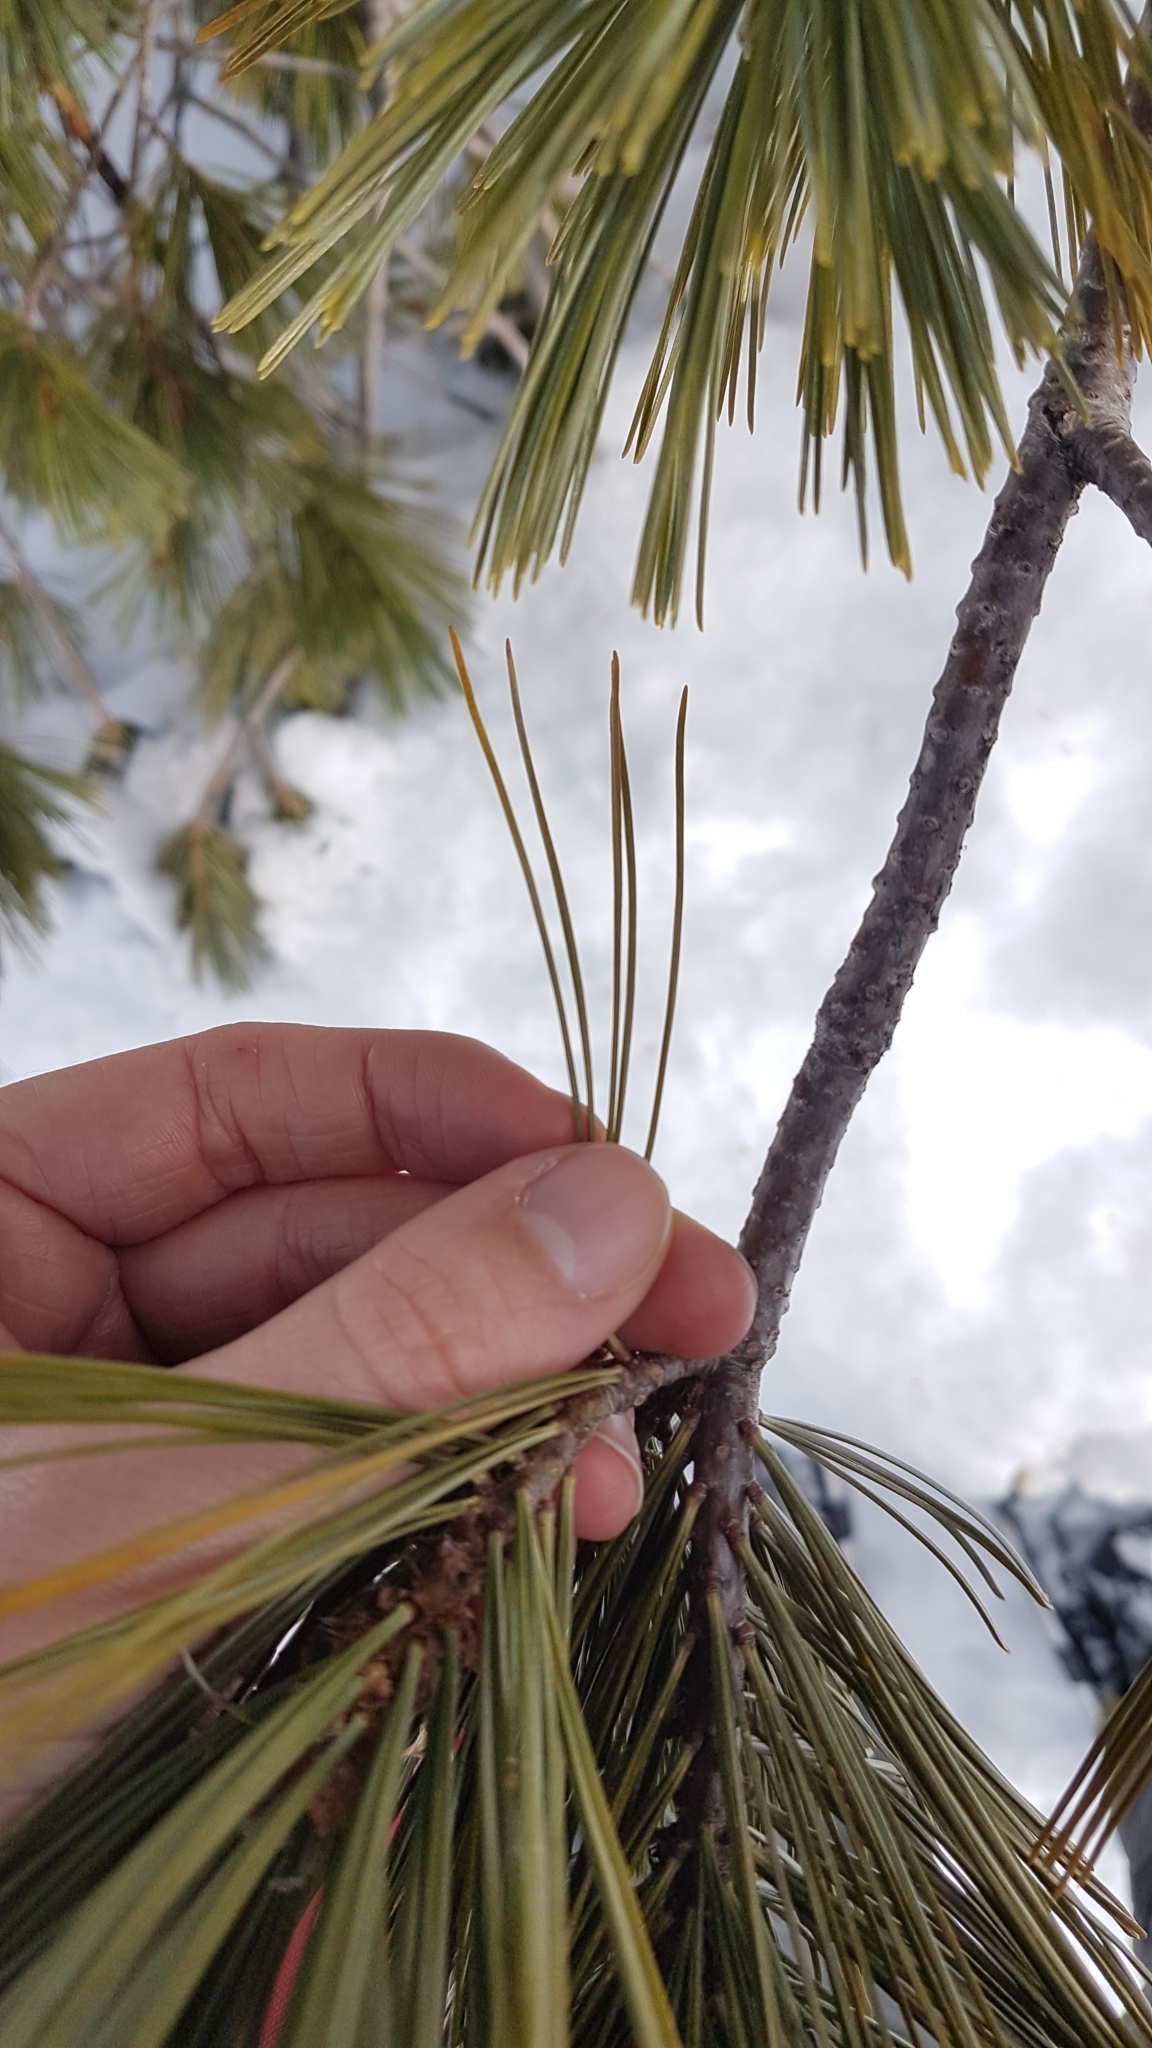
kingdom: Plantae
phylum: Tracheophyta
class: Pinopsida
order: Pinales
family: Pinaceae
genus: Pinus
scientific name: Pinus monticola
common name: Western white pine
